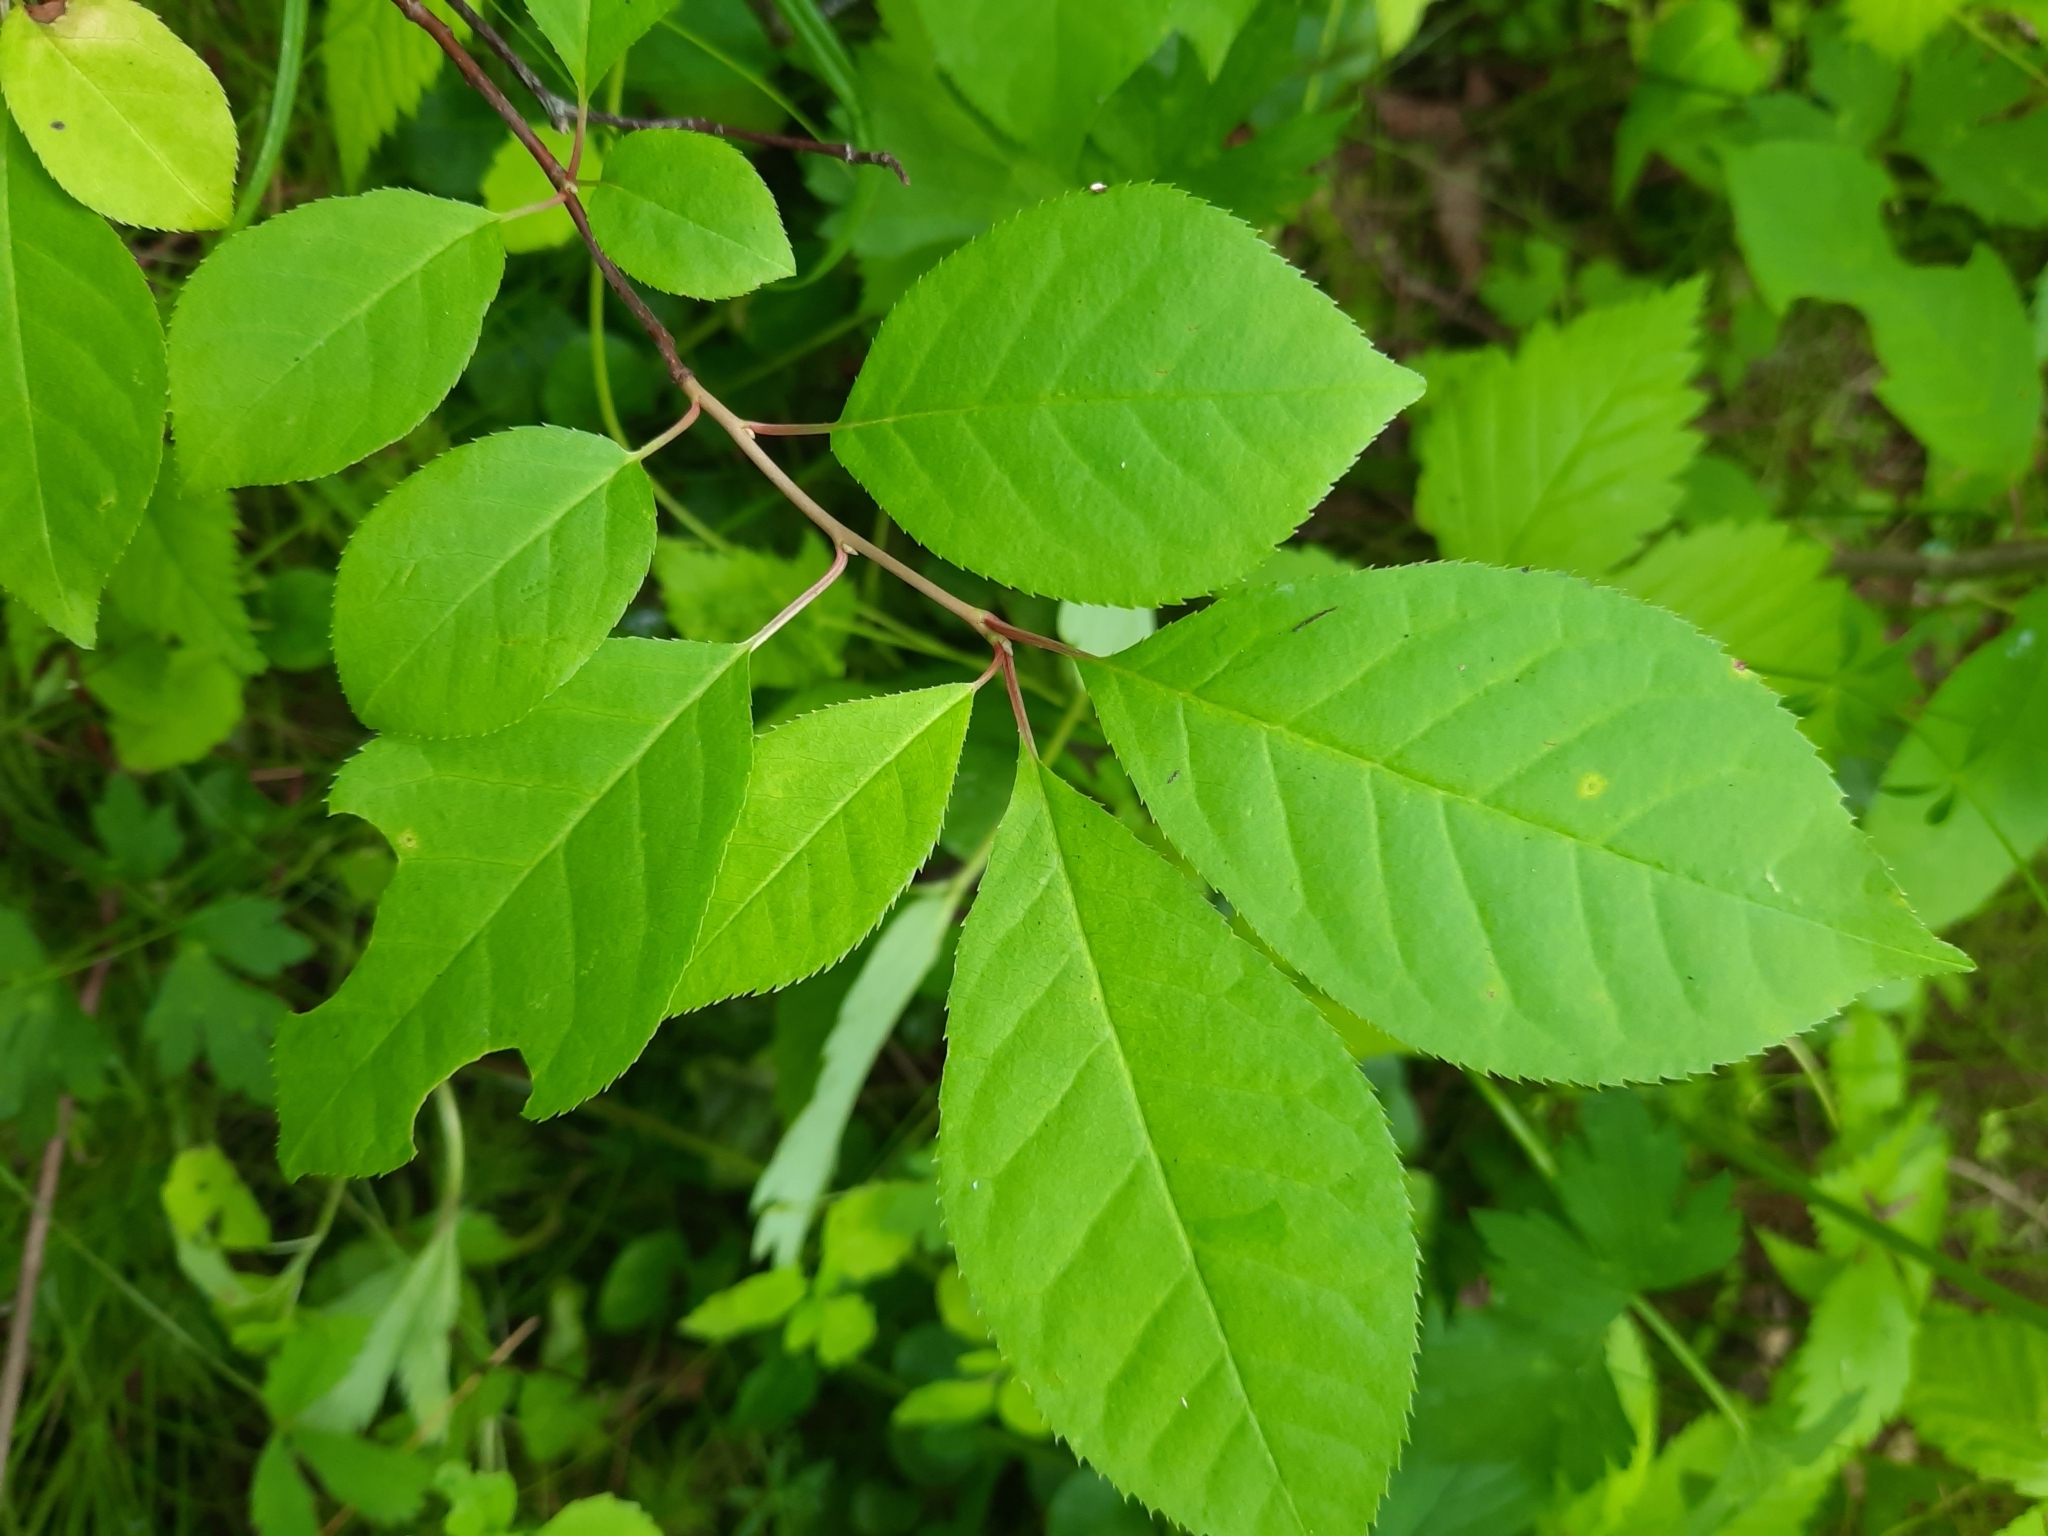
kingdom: Plantae
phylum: Tracheophyta
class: Magnoliopsida
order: Rosales
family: Rosaceae
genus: Prunus
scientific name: Prunus virginiana
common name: Chokecherry
